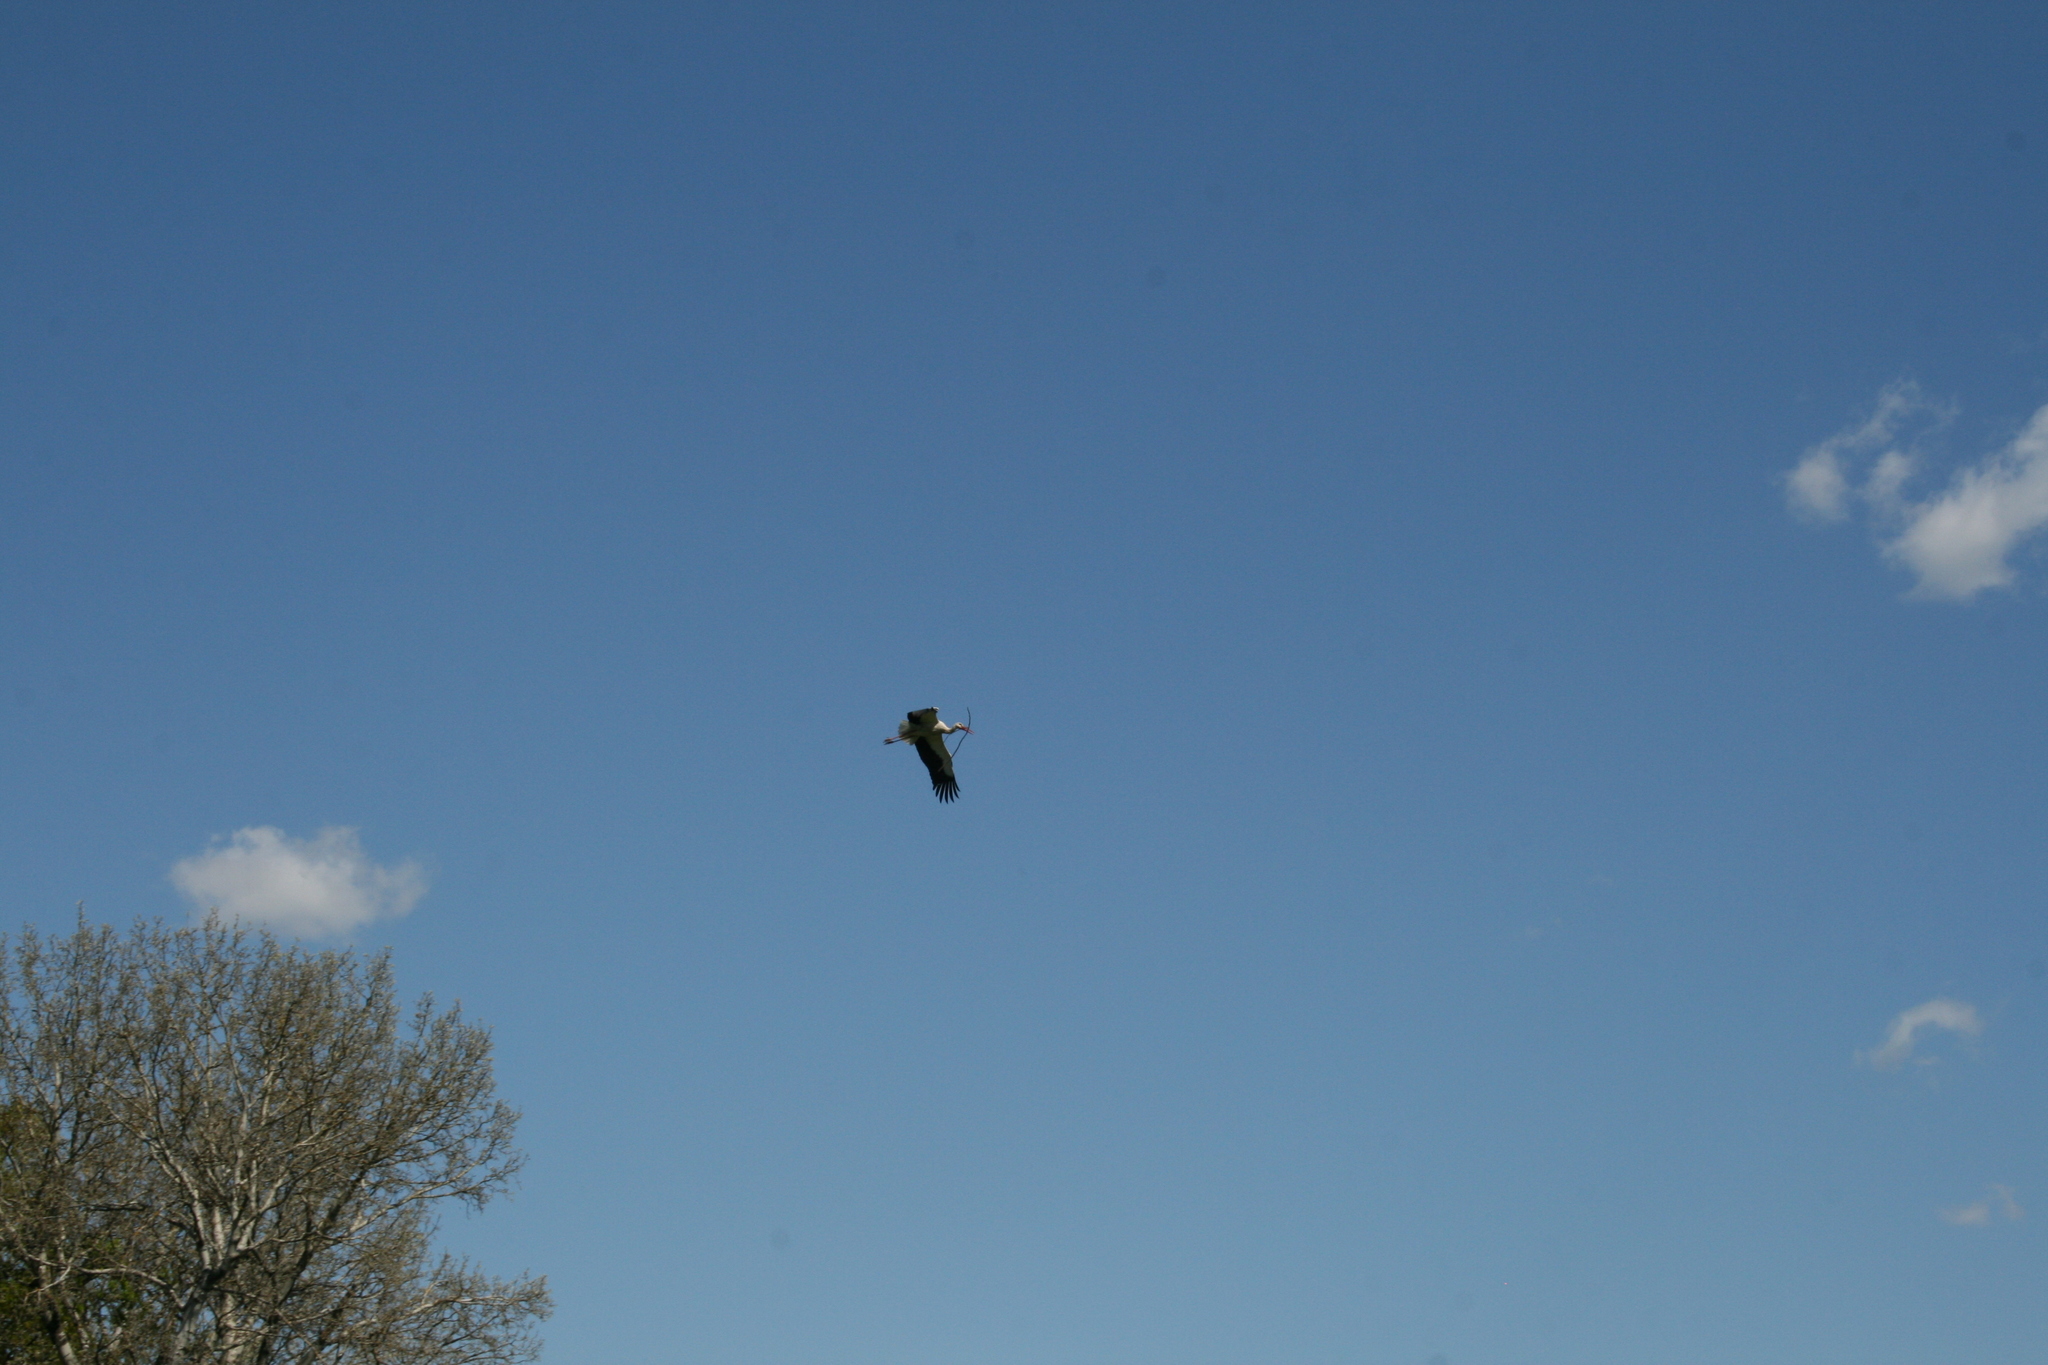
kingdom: Animalia
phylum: Chordata
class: Aves
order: Ciconiiformes
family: Ciconiidae
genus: Ciconia
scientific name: Ciconia ciconia
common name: White stork
